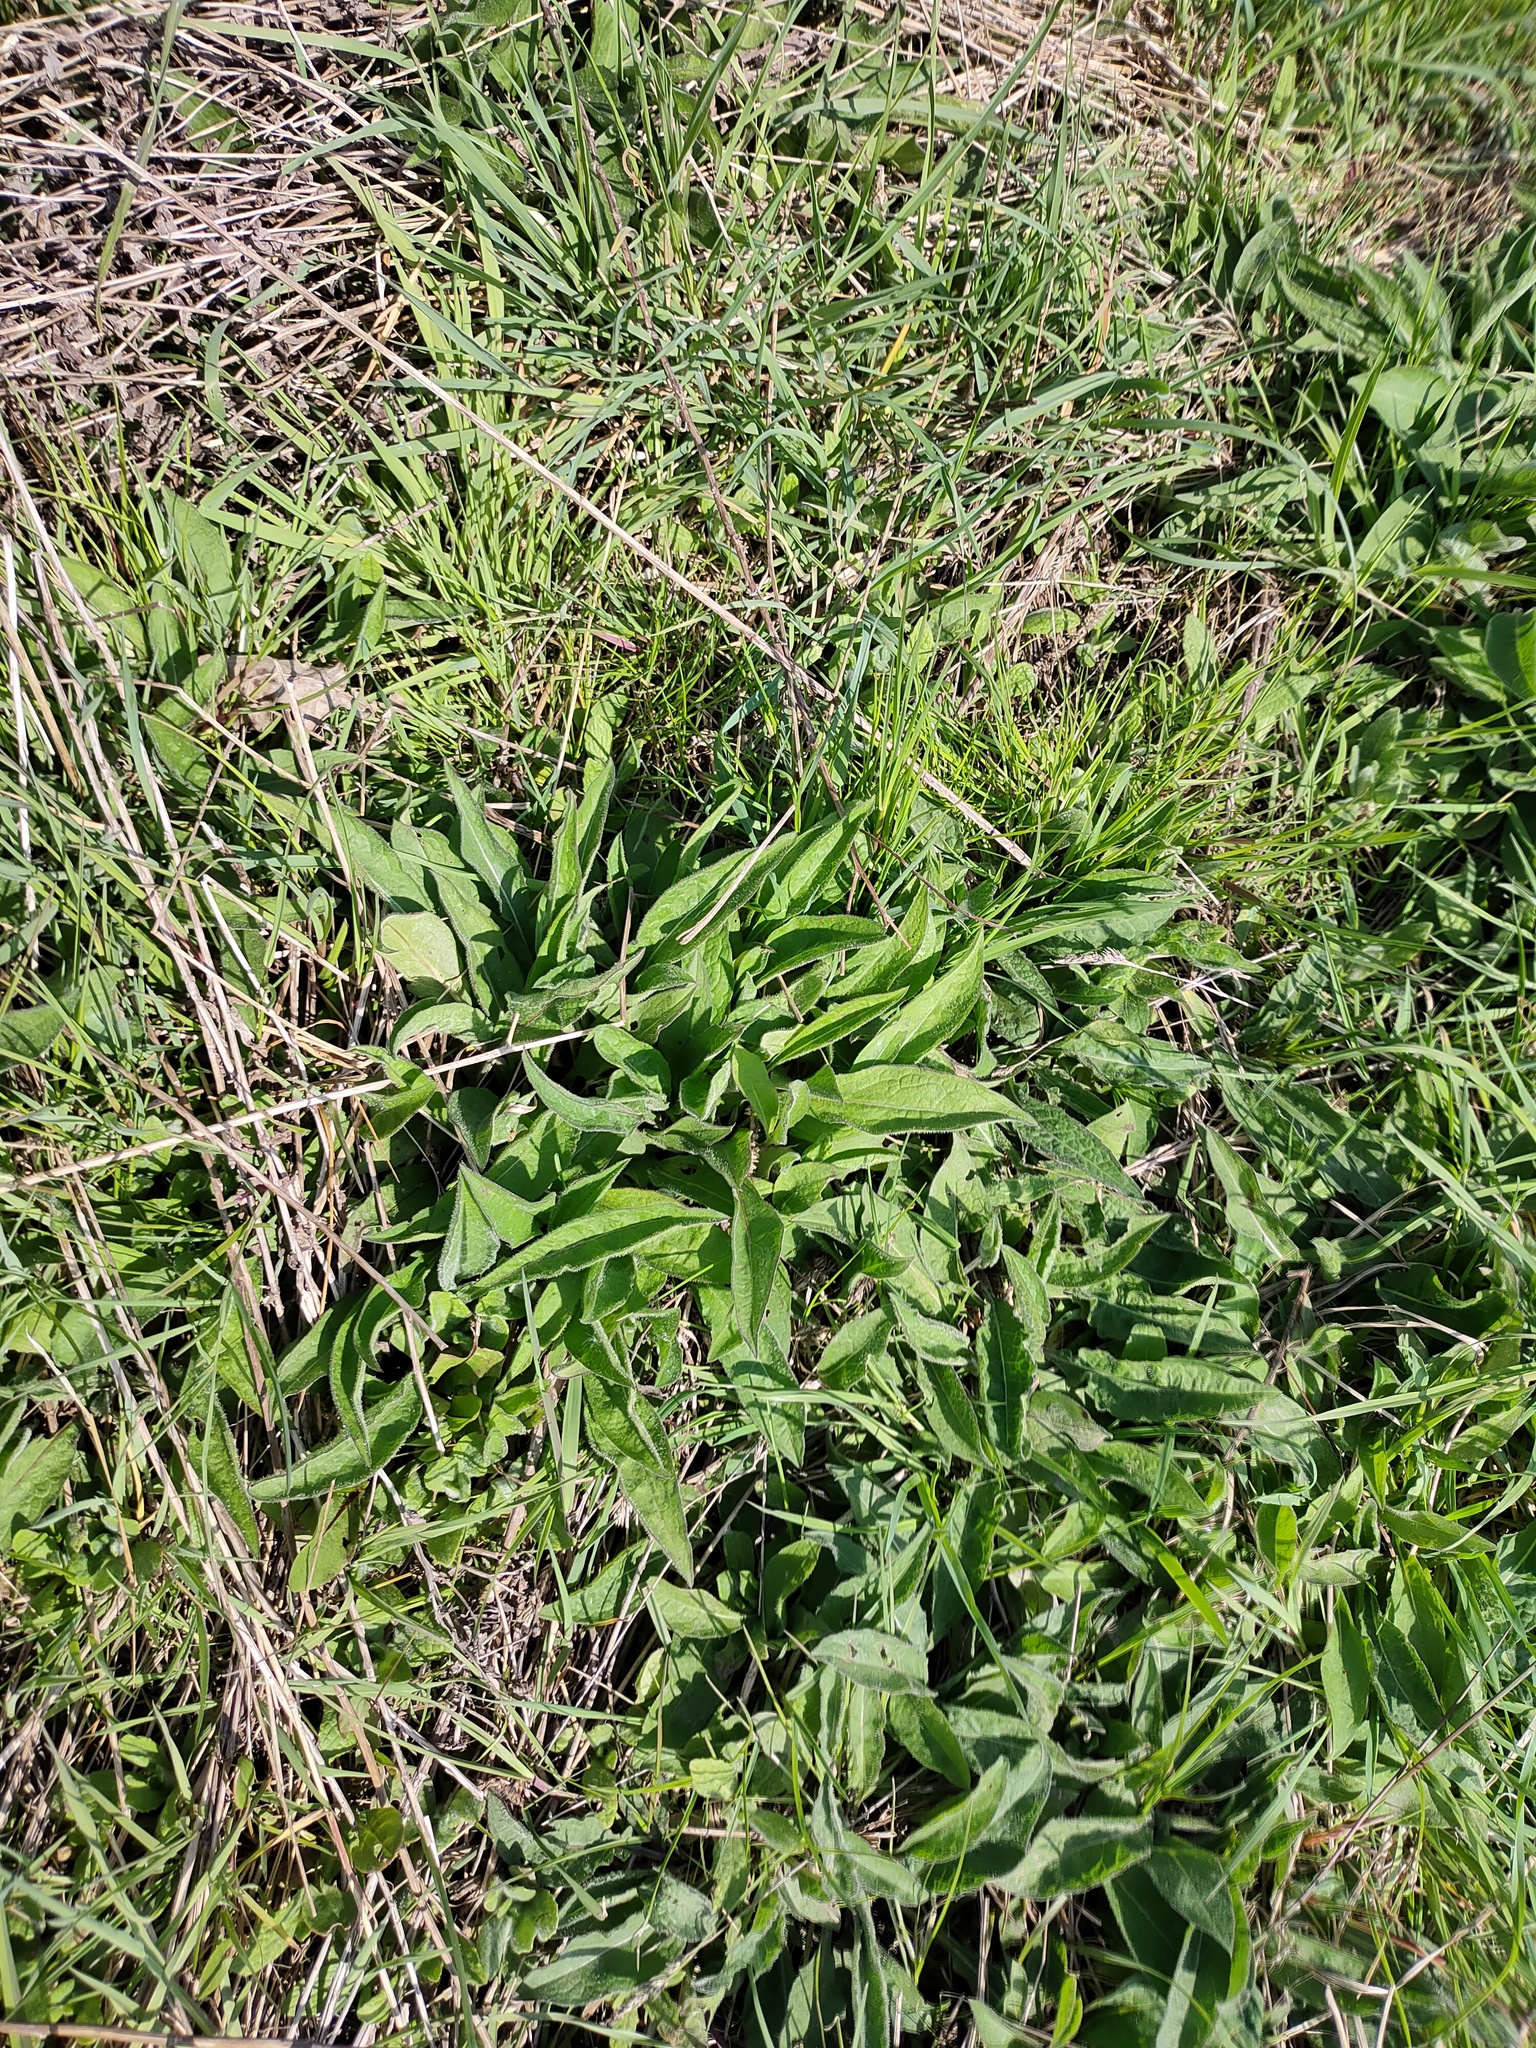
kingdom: Plantae
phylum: Tracheophyta
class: Magnoliopsida
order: Asterales
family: Asteraceae
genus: Centaurea
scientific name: Centaurea nigra
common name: Lesser knapweed
